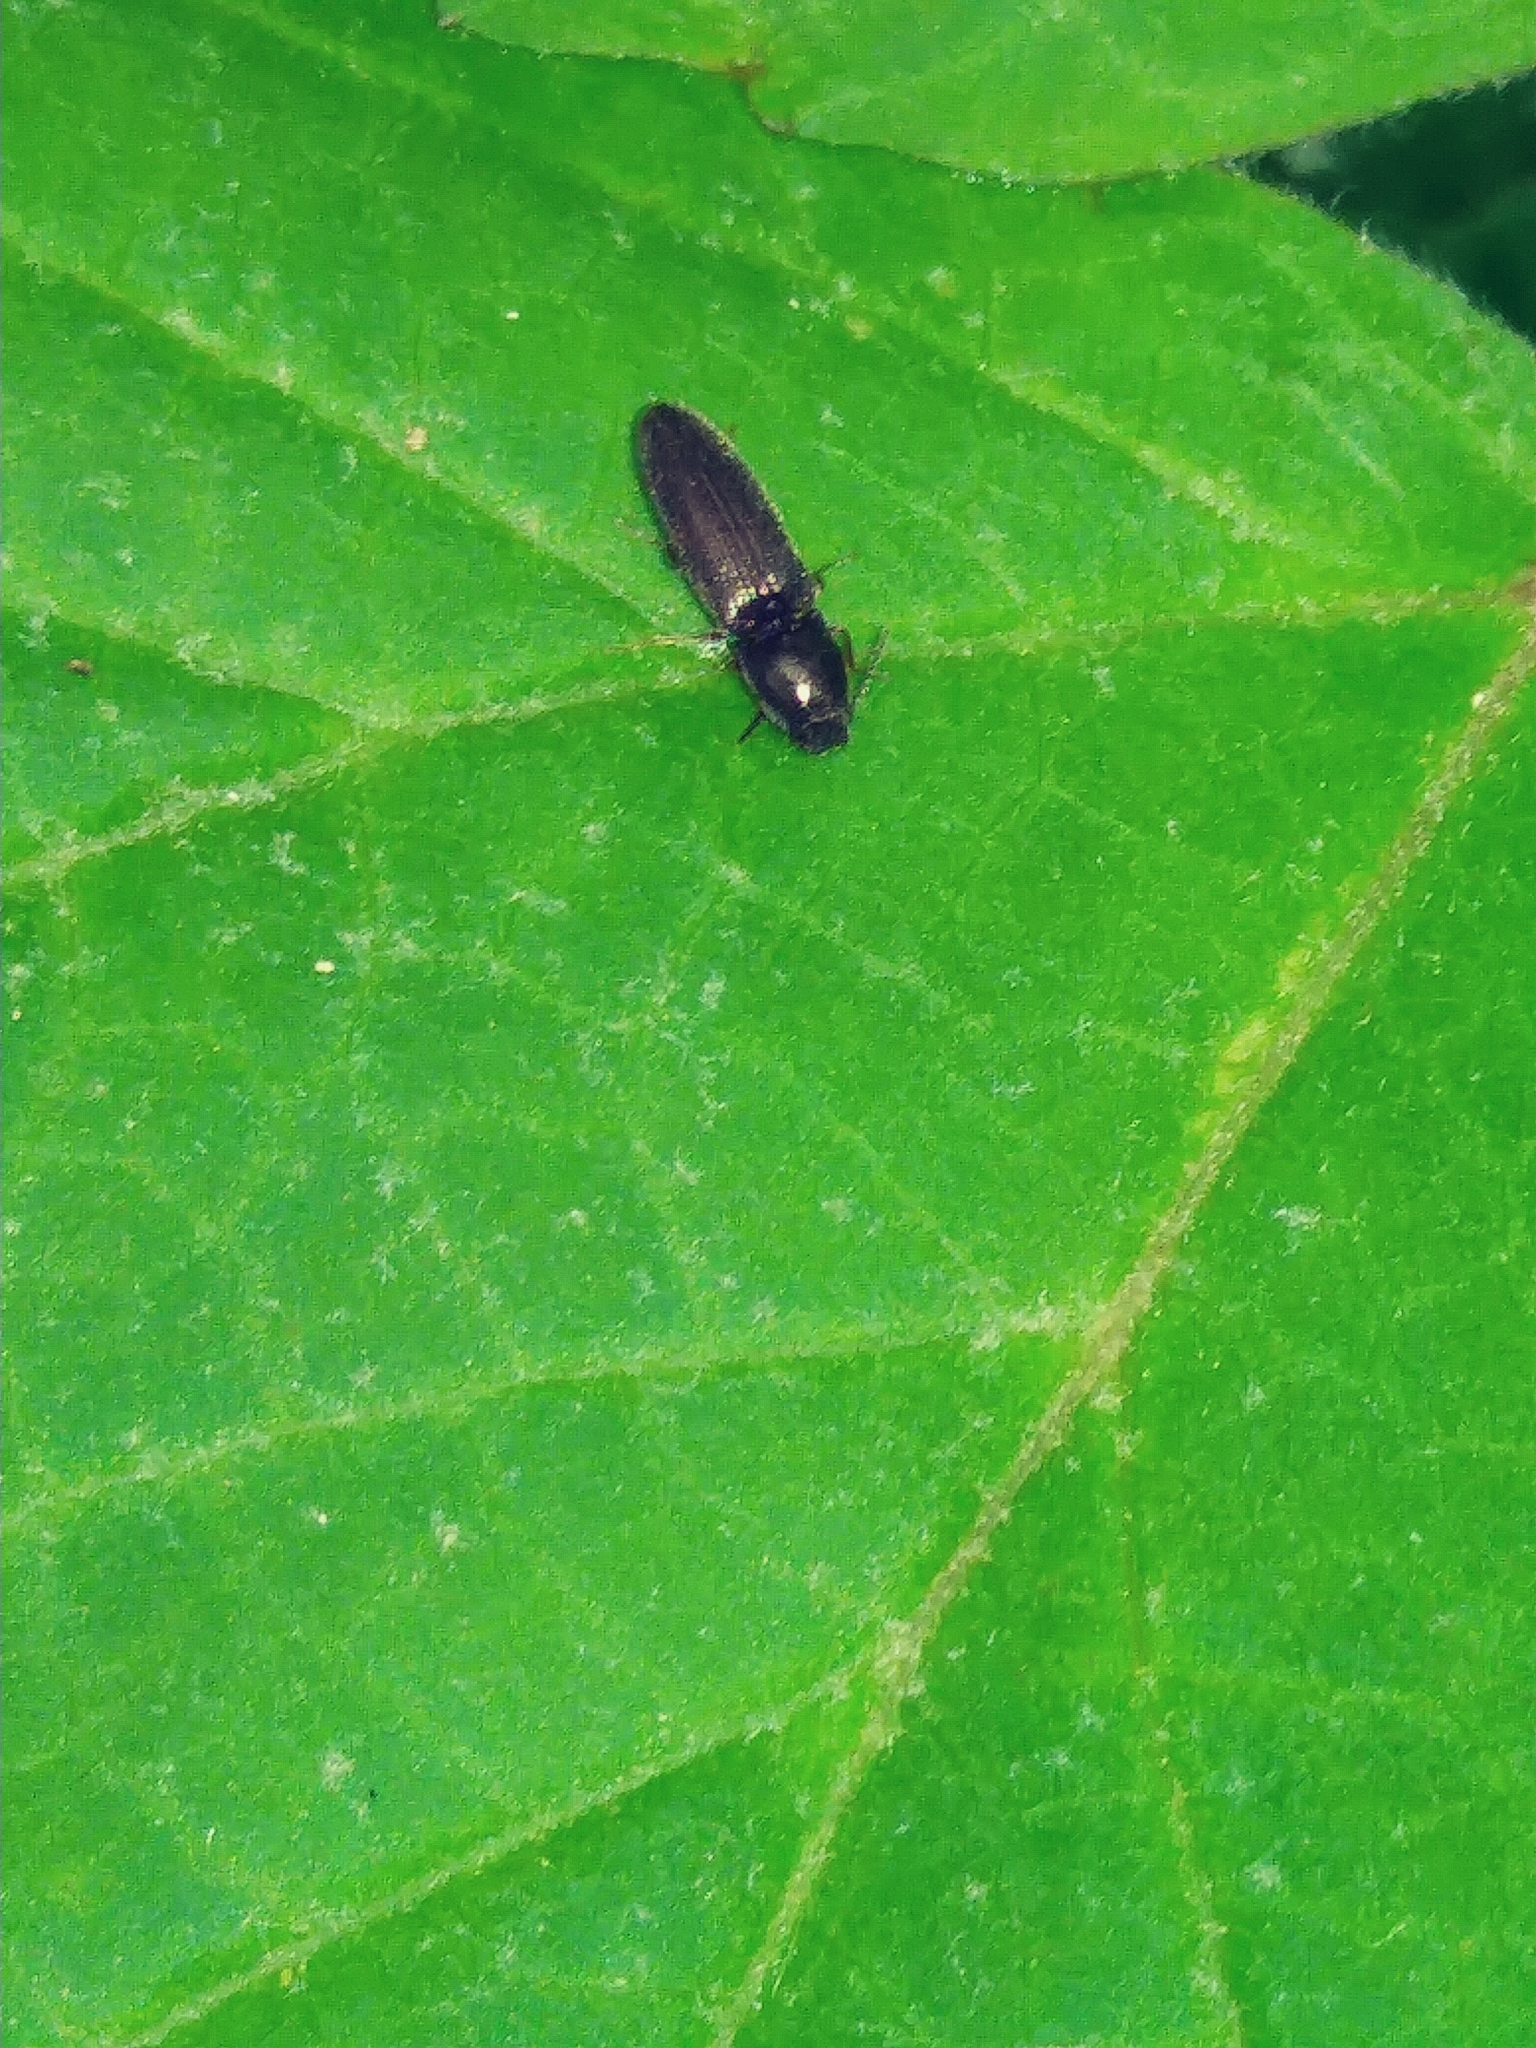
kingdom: Animalia
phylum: Arthropoda
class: Insecta
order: Coleoptera
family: Elateridae
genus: Limonius
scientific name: Limonius quercinus
